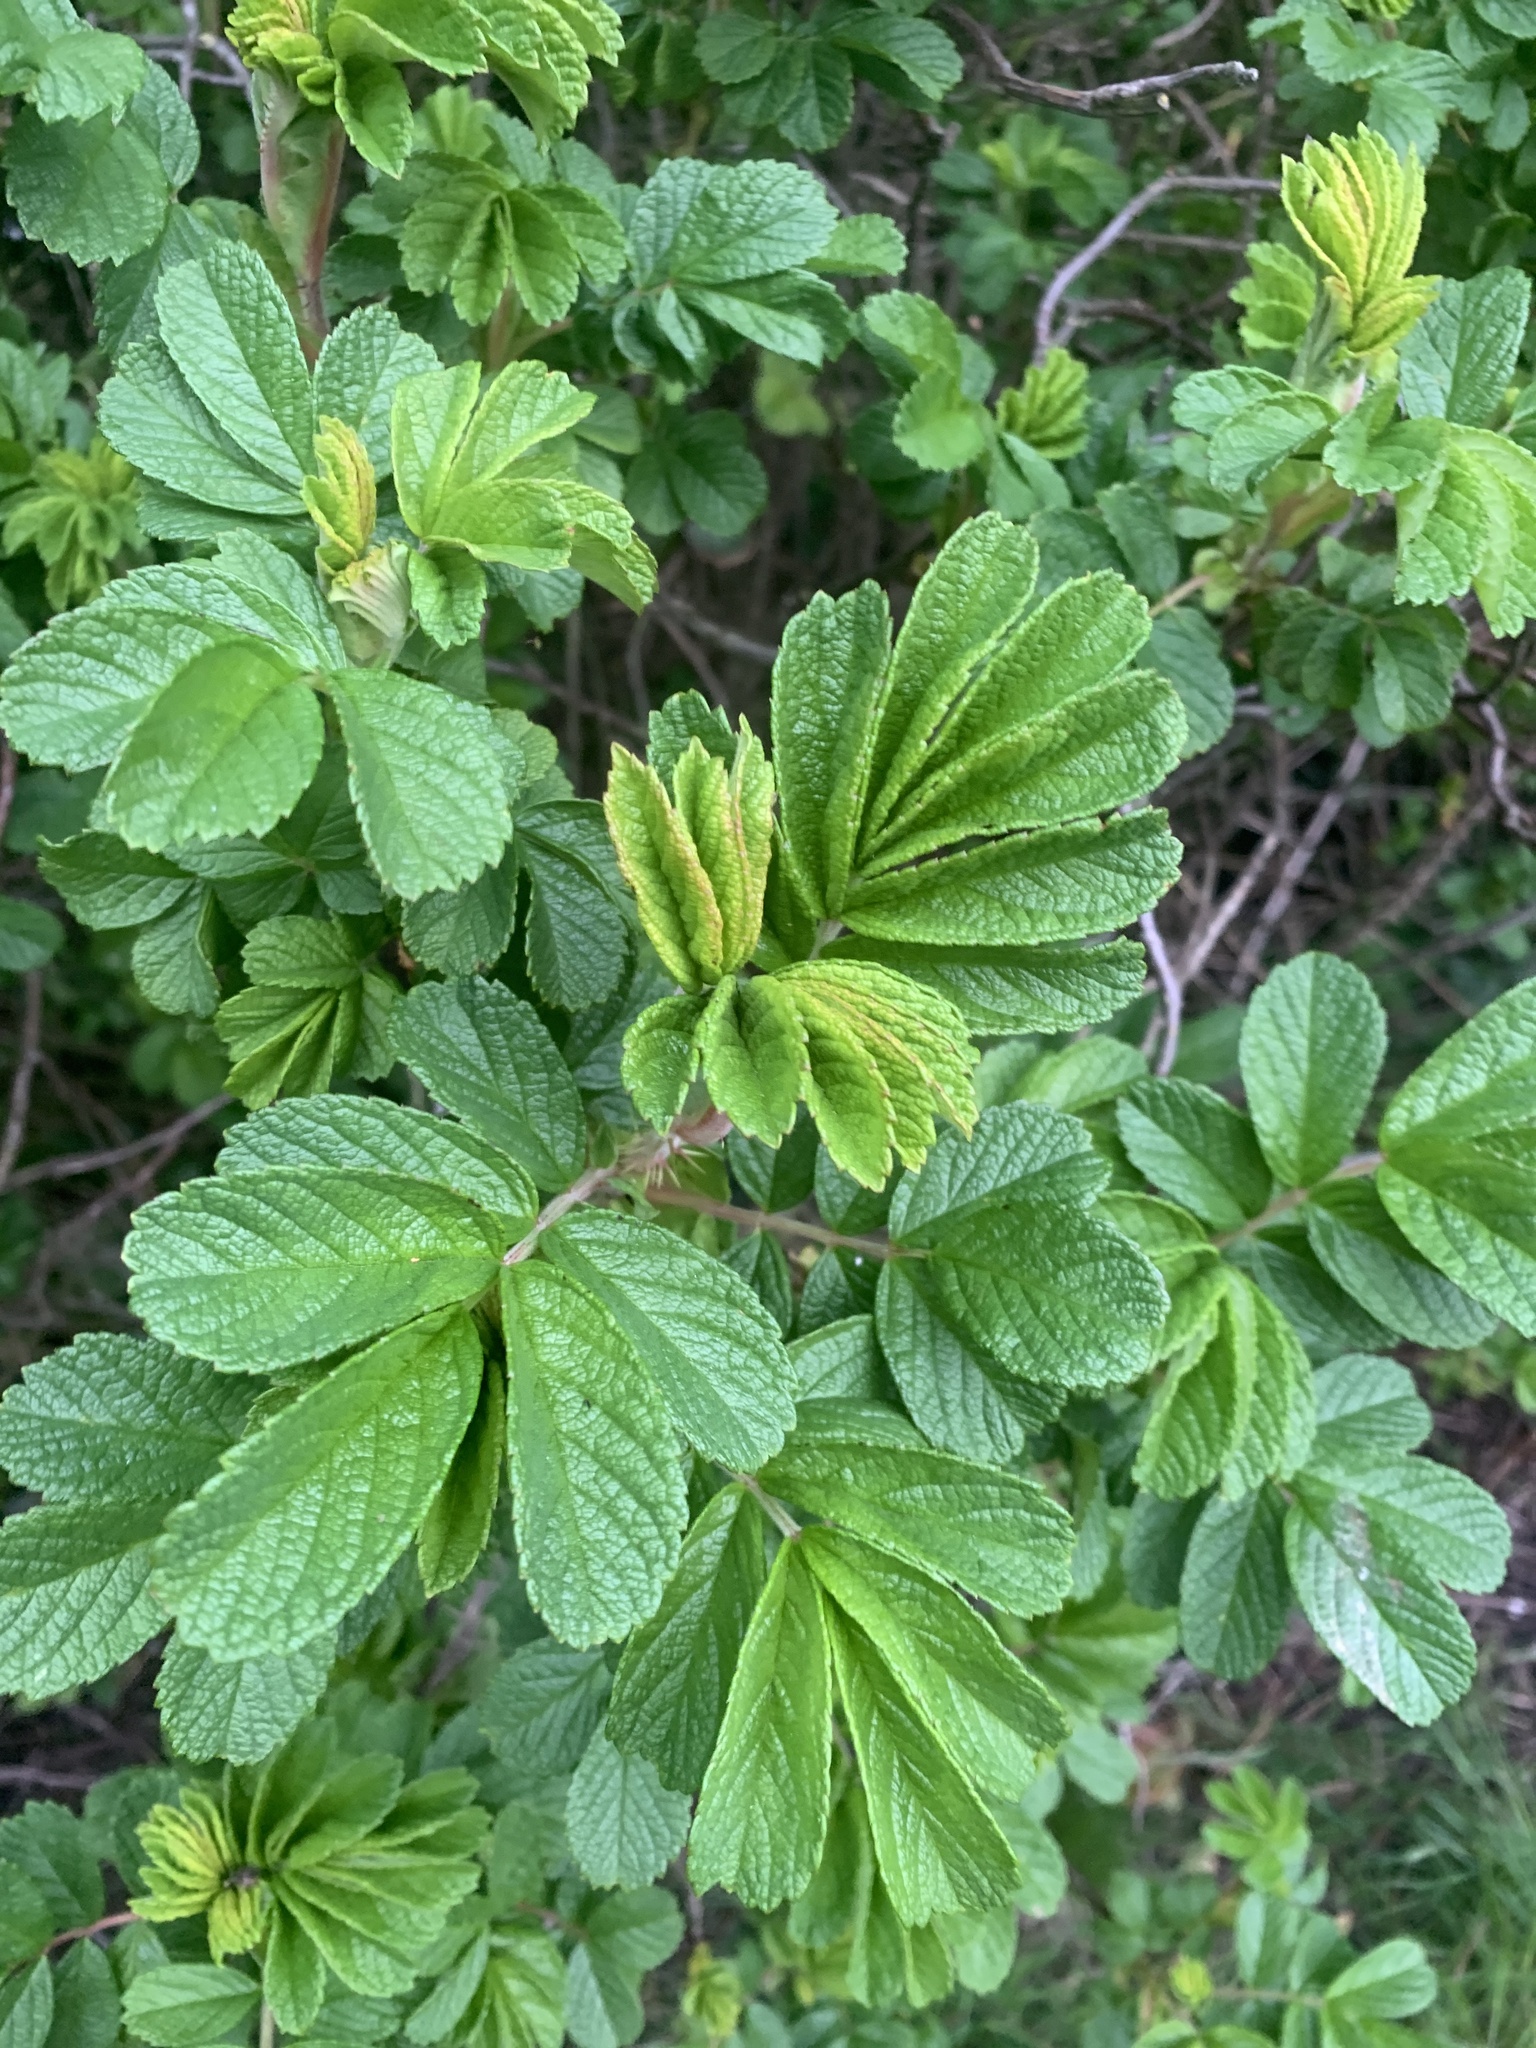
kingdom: Plantae
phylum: Tracheophyta
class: Magnoliopsida
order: Rosales
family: Rosaceae
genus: Rosa
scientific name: Rosa rugosa
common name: Japanese rose
